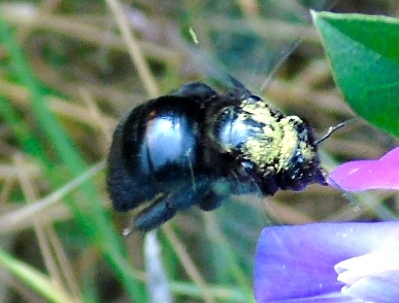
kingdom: Animalia
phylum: Arthropoda
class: Insecta
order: Hymenoptera
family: Apidae
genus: Xylocopa
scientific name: Xylocopa fimbriata
